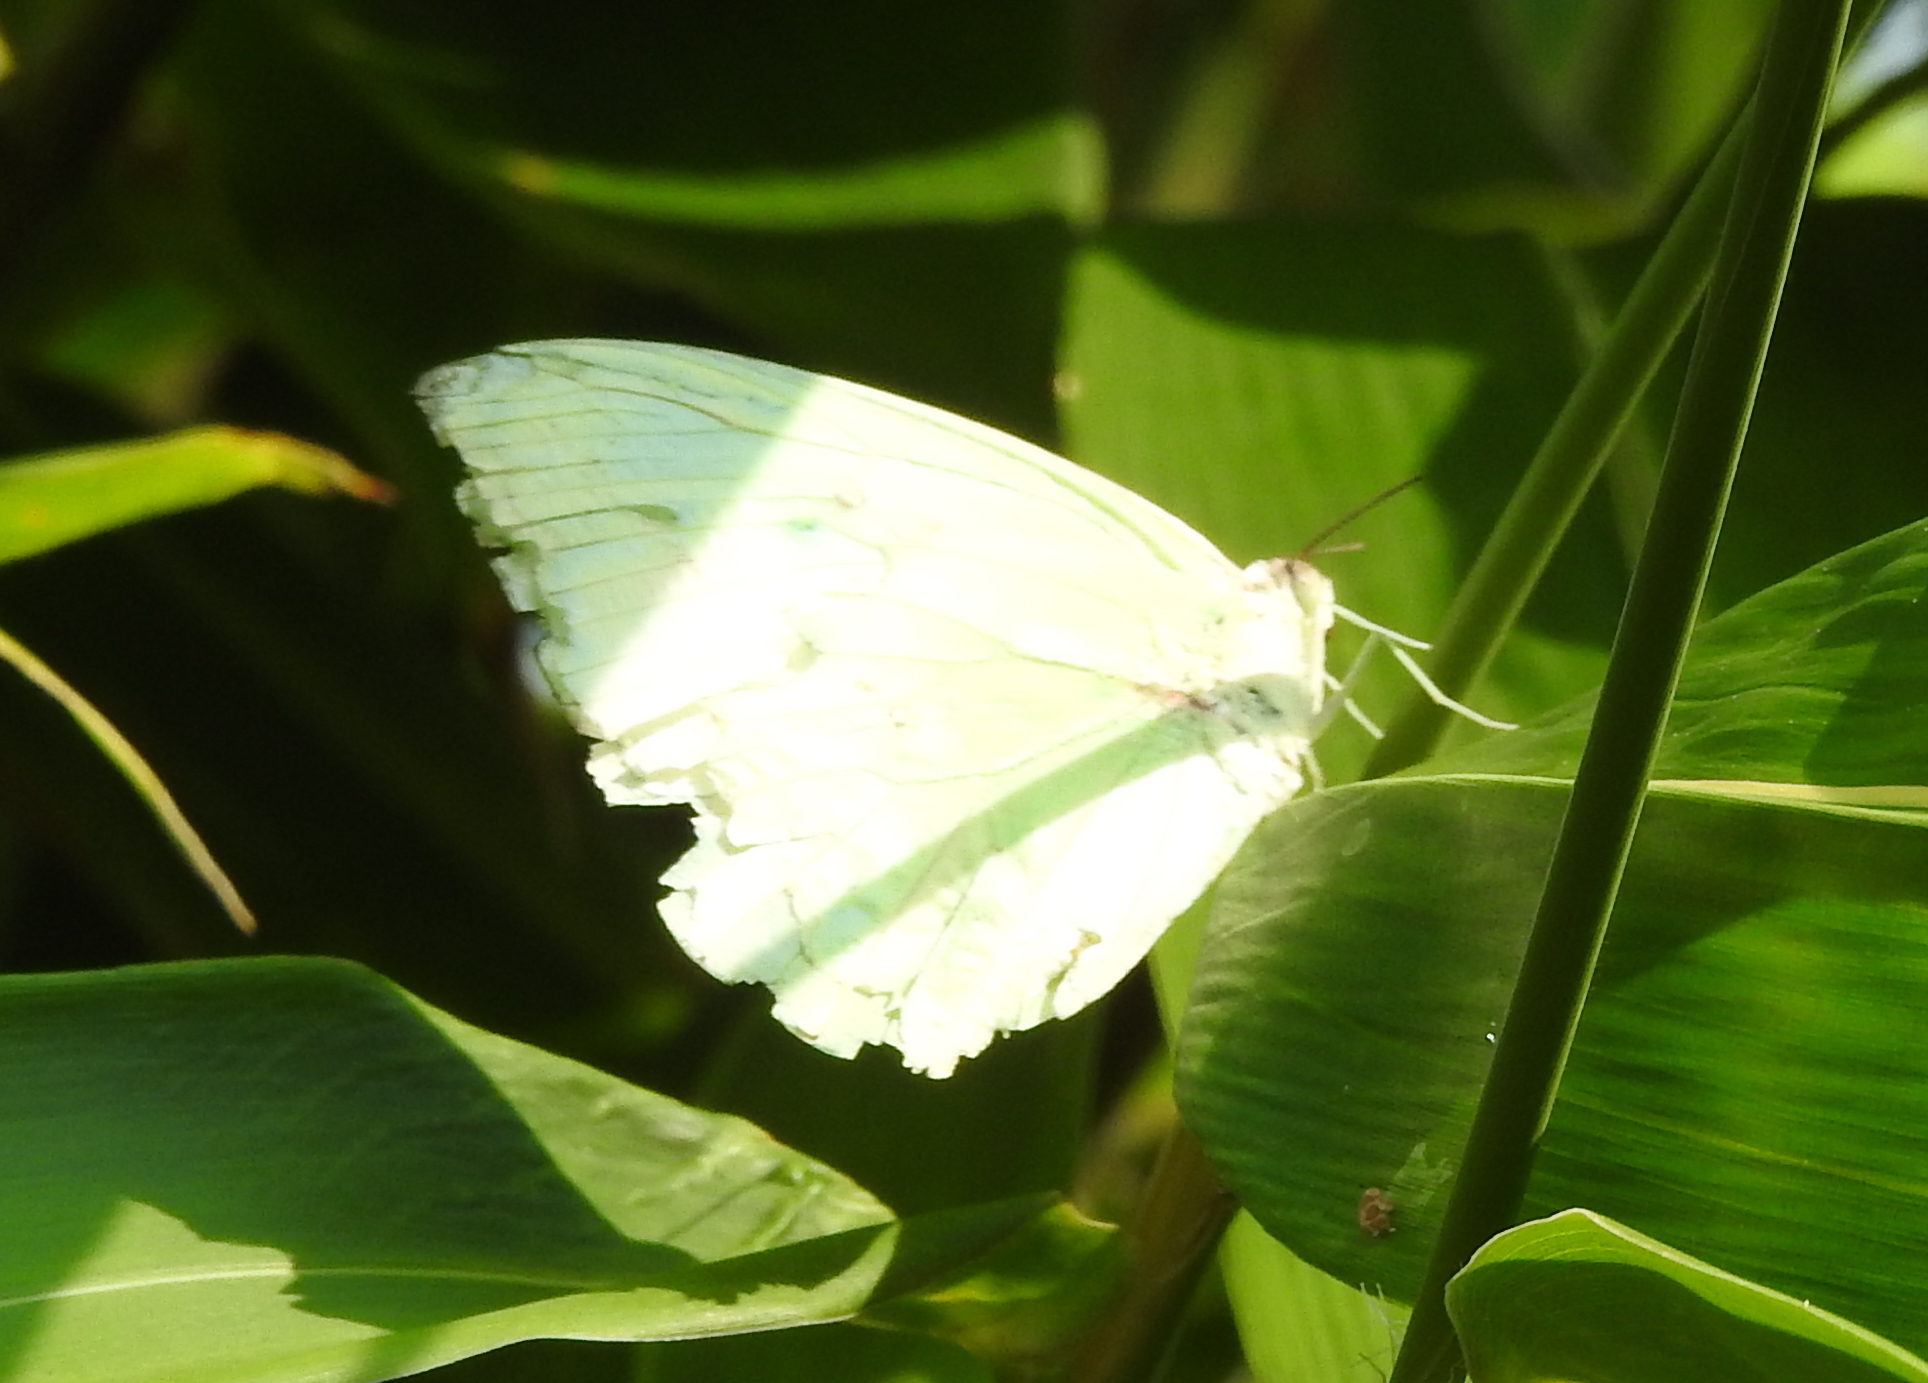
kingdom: Animalia
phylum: Arthropoda
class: Insecta
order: Lepidoptera
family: Pieridae
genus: Catopsilia
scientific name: Catopsilia pomona
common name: Common emigrant
